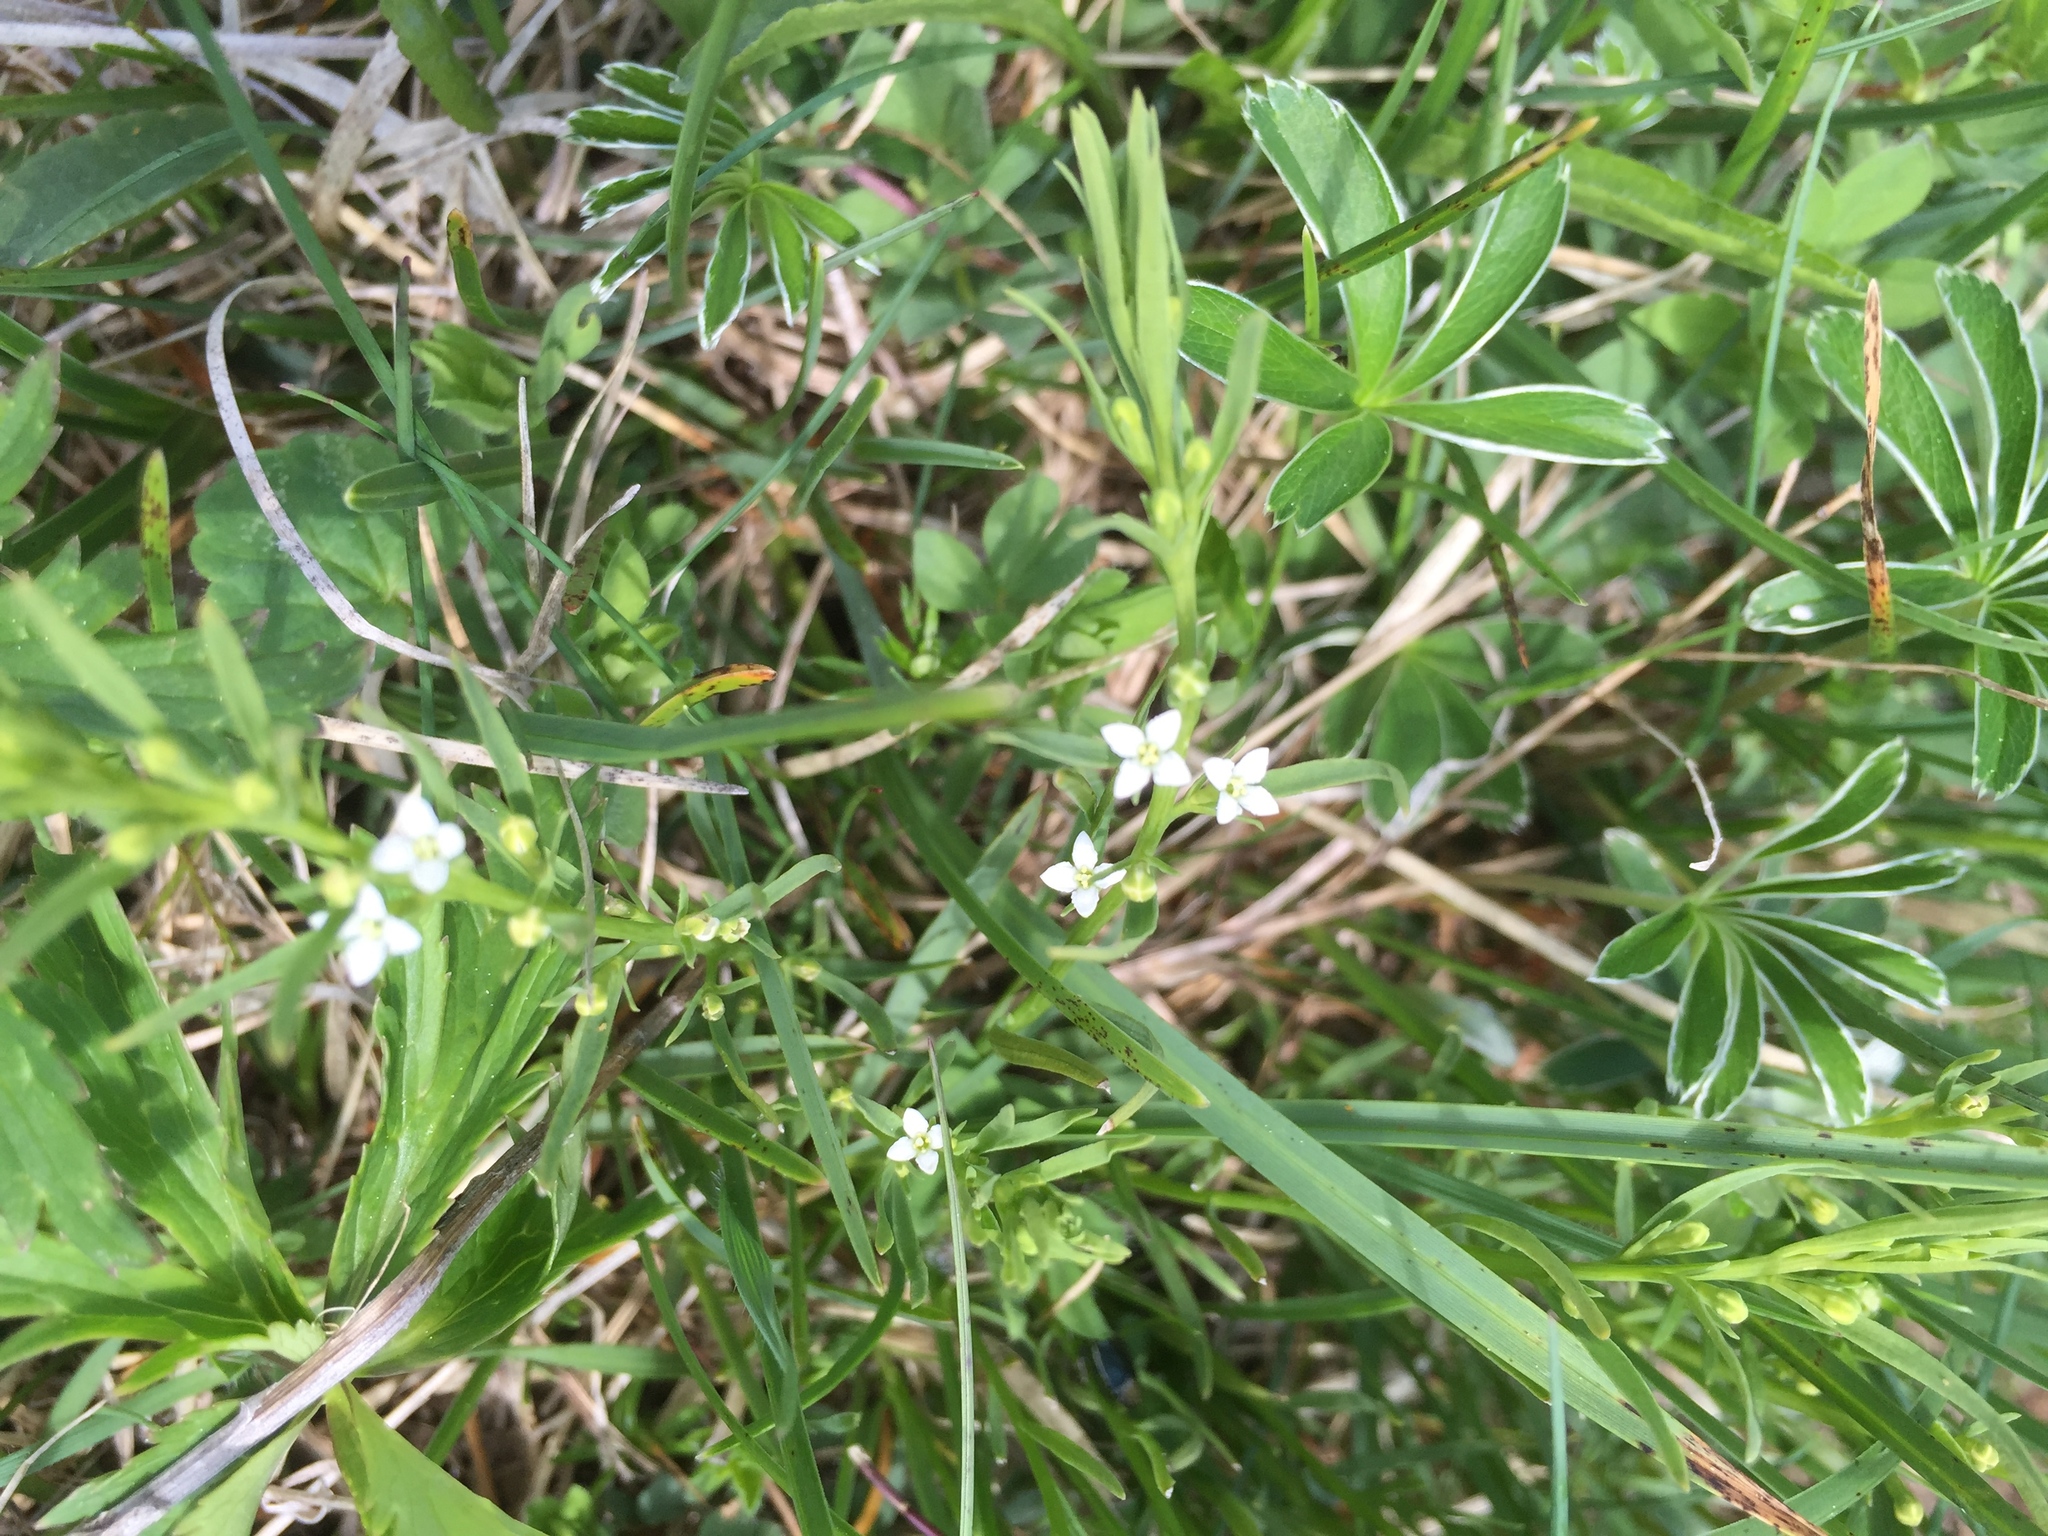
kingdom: Plantae
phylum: Tracheophyta
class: Magnoliopsida
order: Santalales
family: Thesiaceae
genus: Thesium
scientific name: Thesium alpinum
